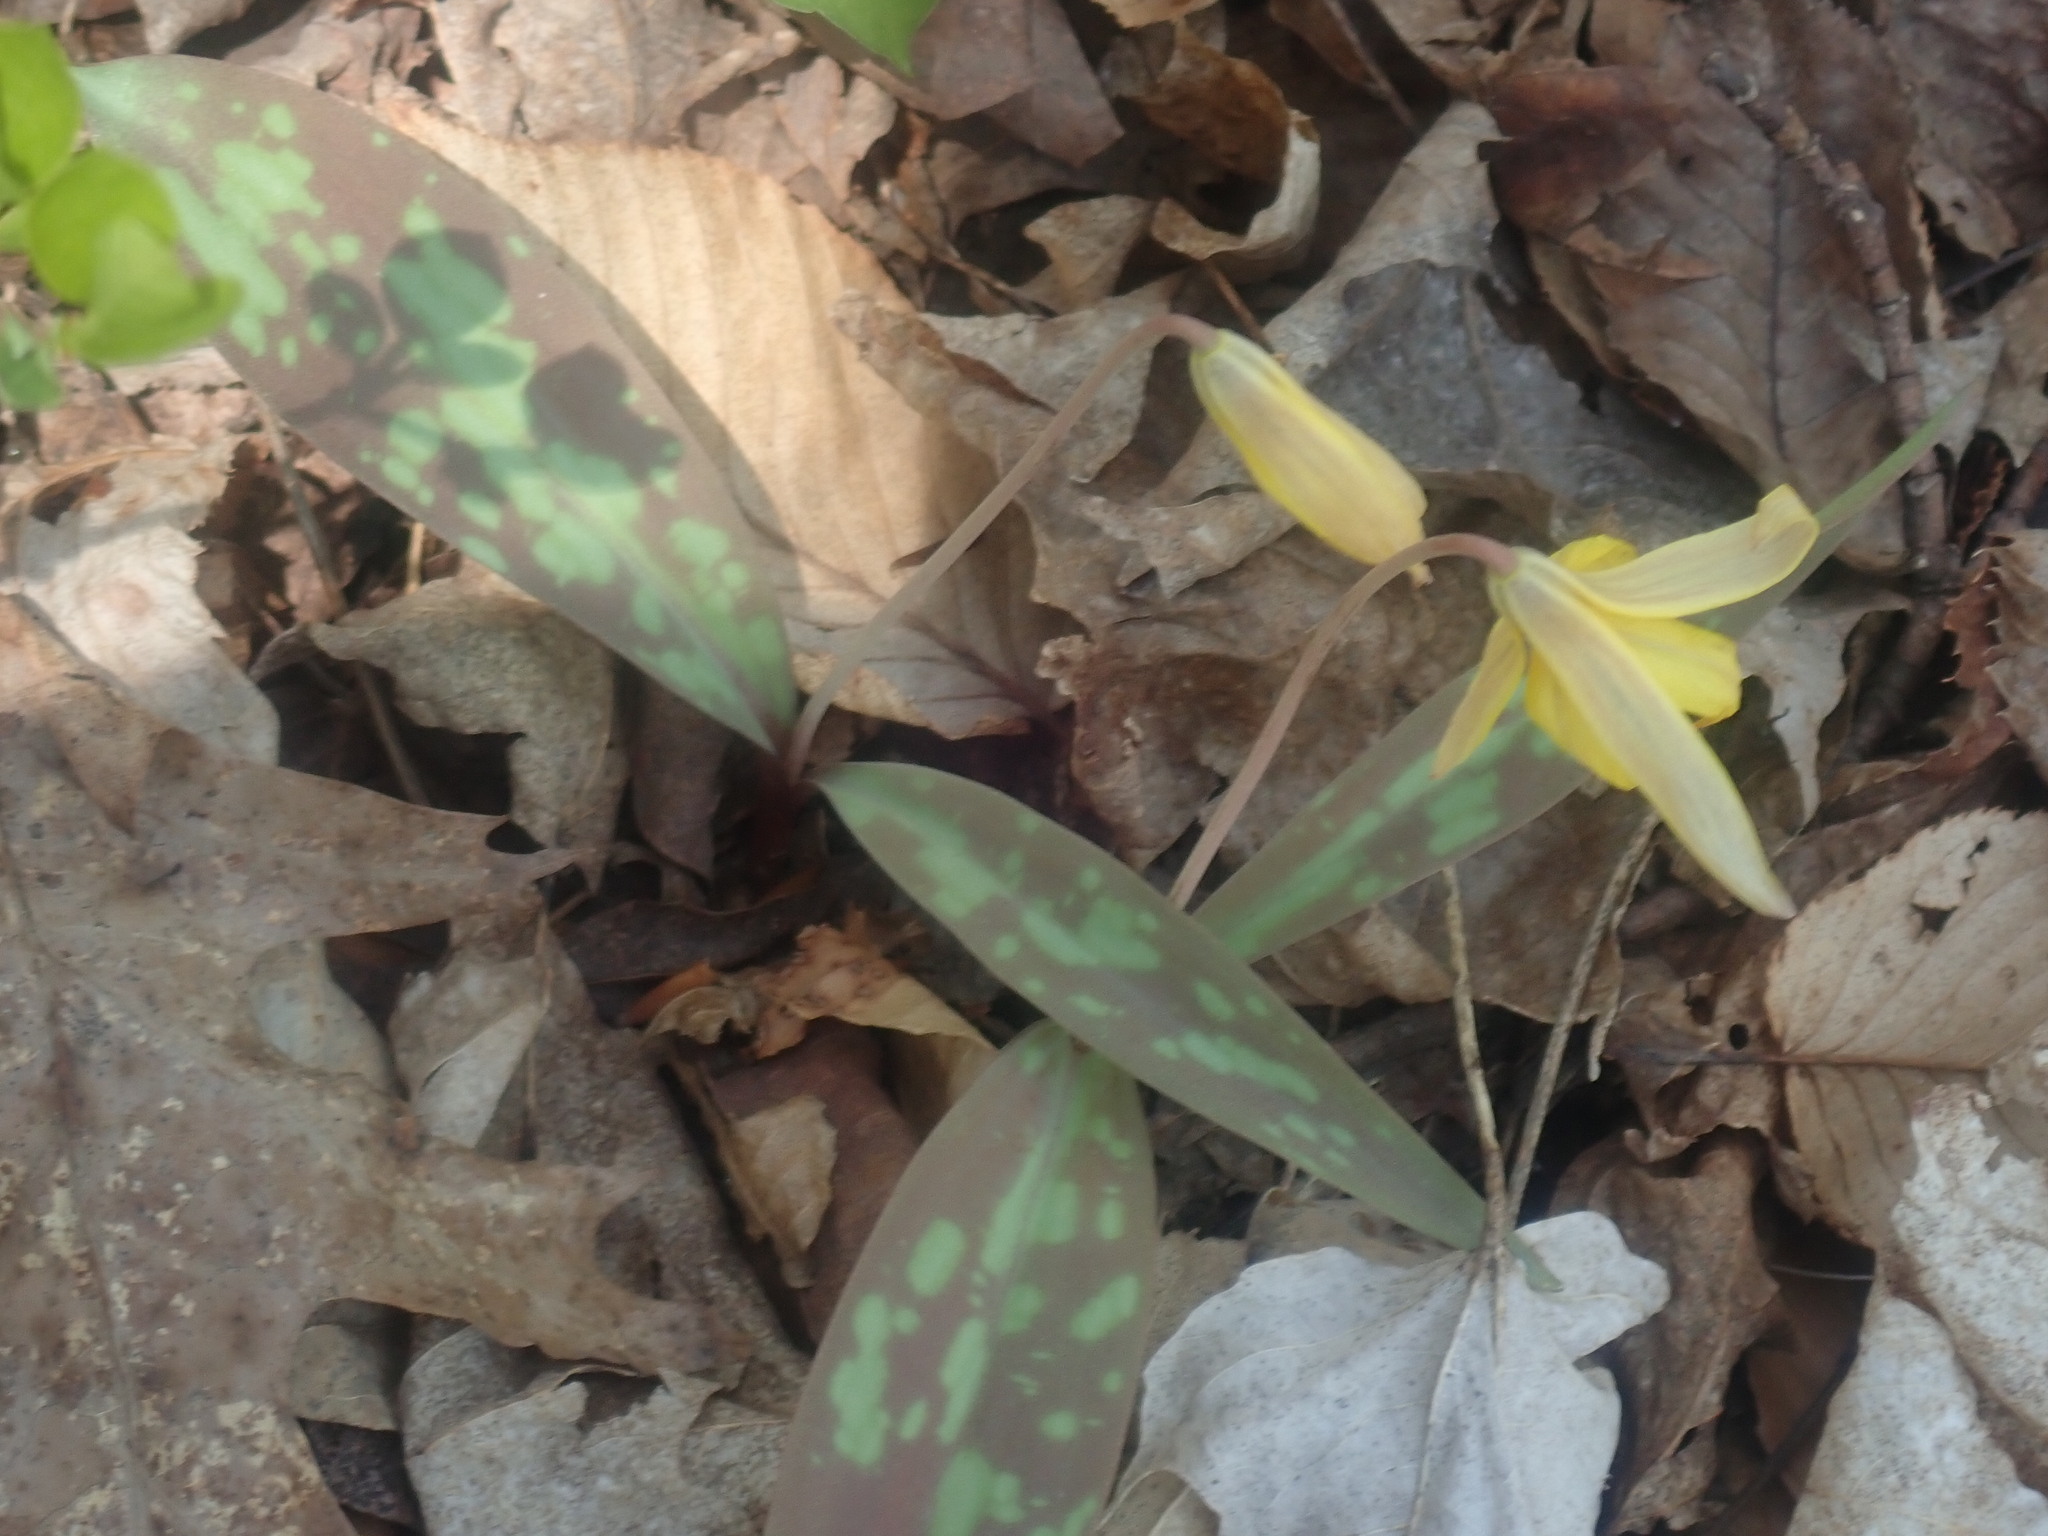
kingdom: Plantae
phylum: Tracheophyta
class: Liliopsida
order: Liliales
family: Liliaceae
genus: Erythronium
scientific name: Erythronium americanum
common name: Yellow adder's-tongue
